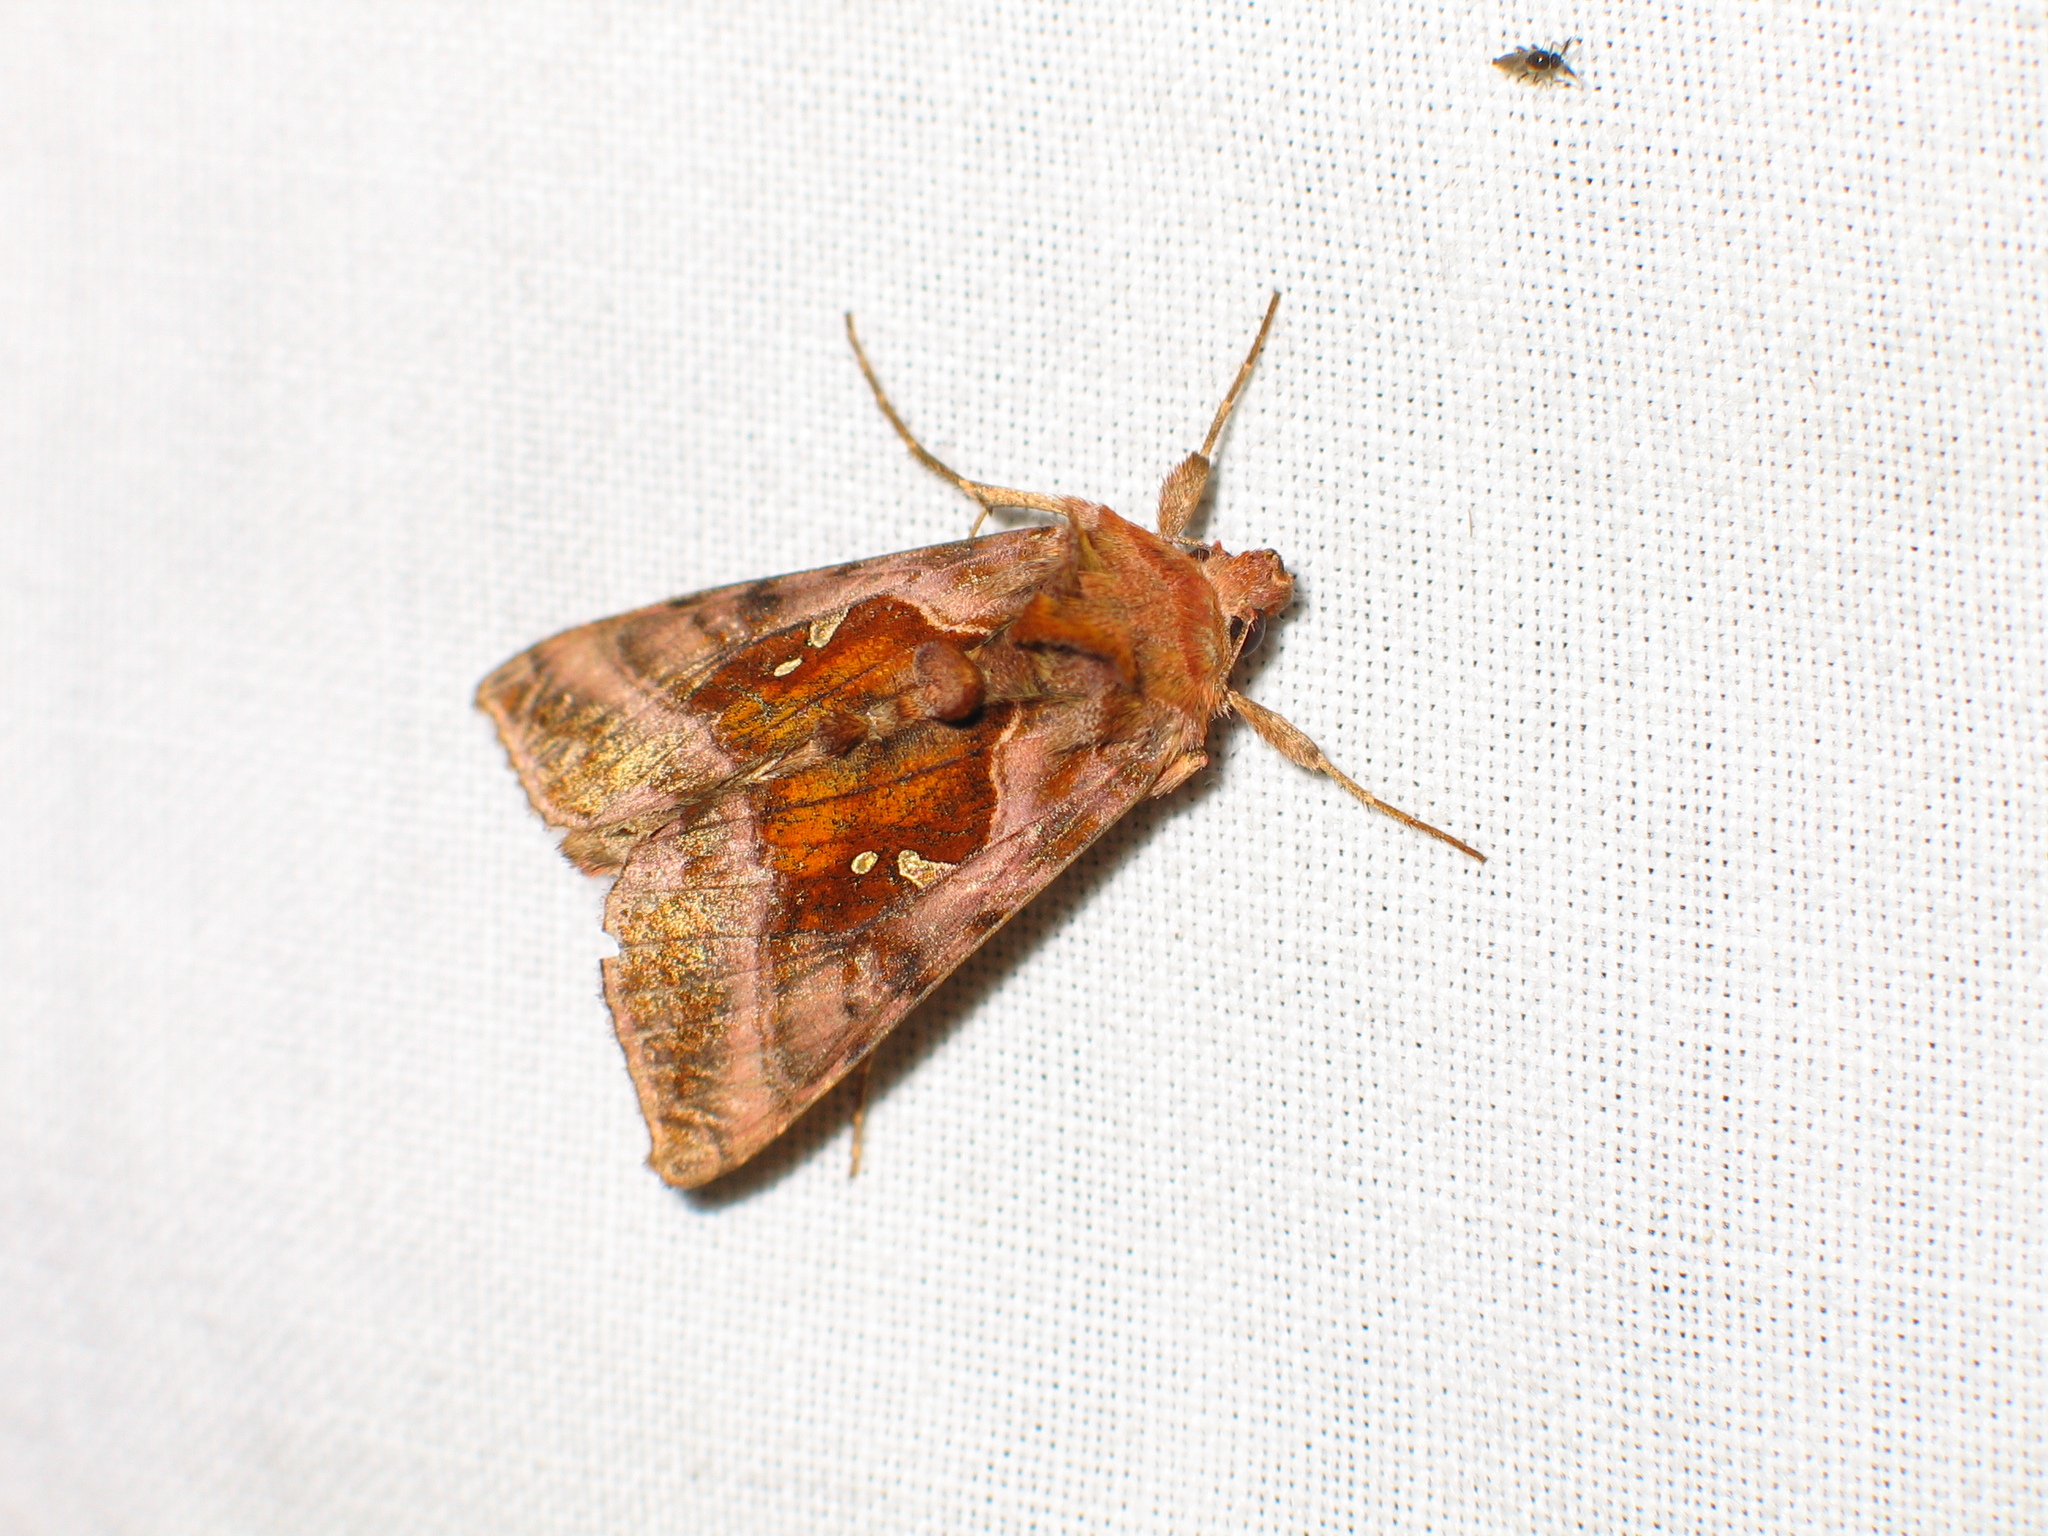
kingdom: Animalia
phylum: Arthropoda
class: Insecta
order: Lepidoptera
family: Noctuidae
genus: Autographa
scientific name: Autographa jota
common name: Plain golden y
